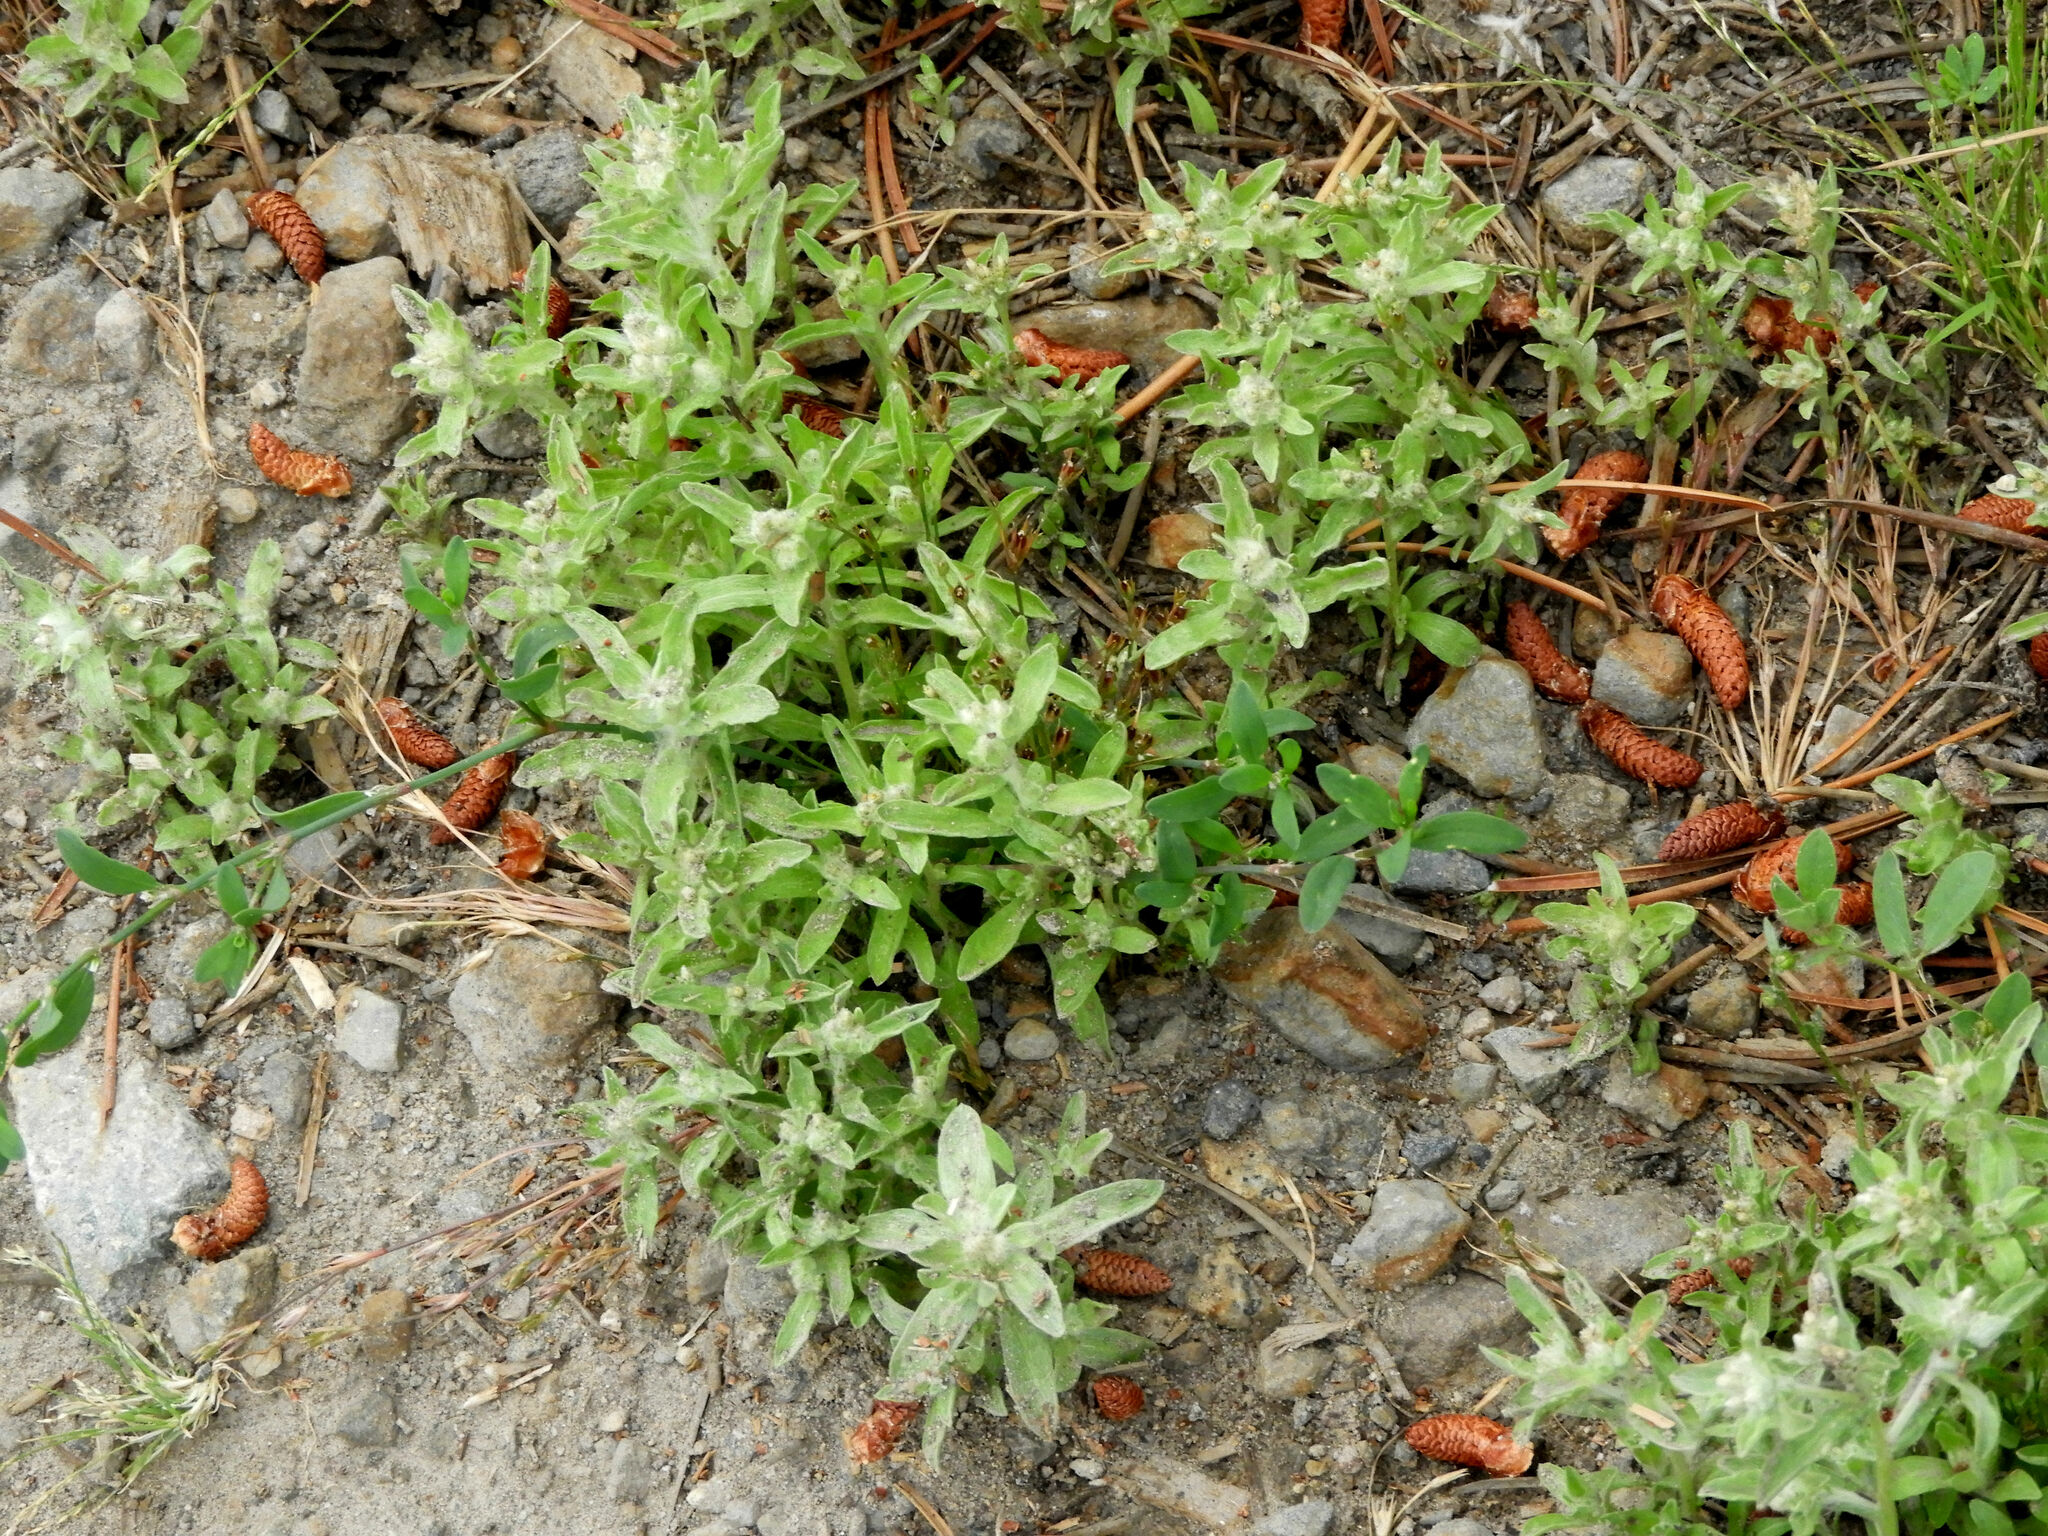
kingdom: Plantae
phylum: Tracheophyta
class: Magnoliopsida
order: Asterales
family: Asteraceae
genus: Gnaphalium
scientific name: Gnaphalium palustre
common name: Western marsh cudweed
